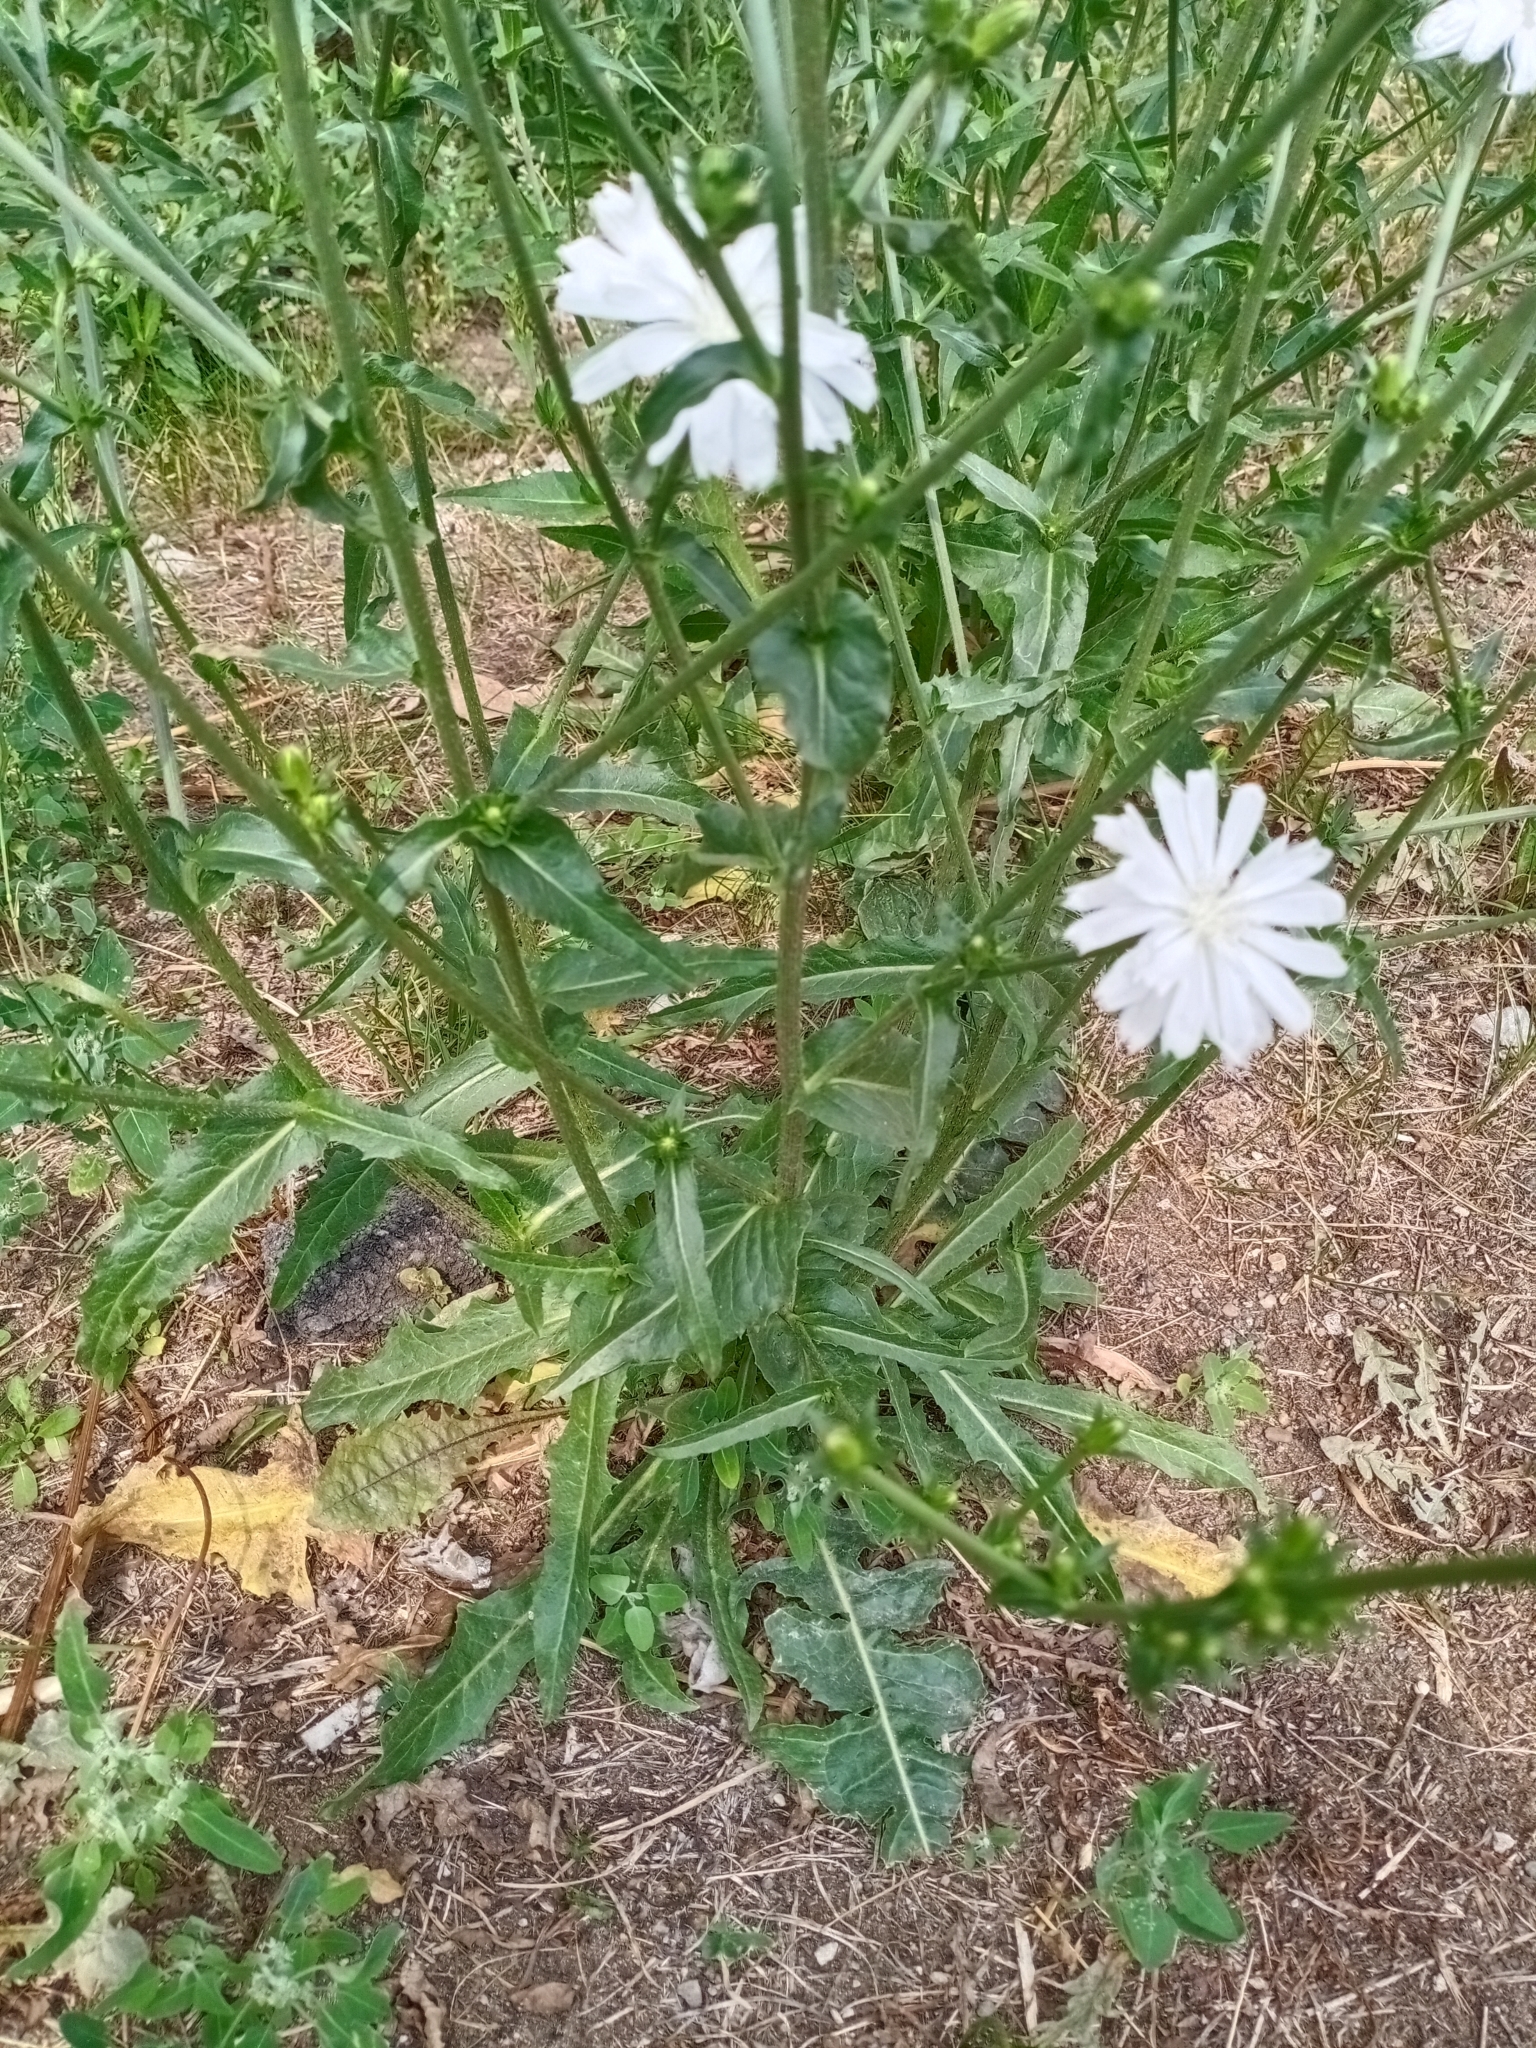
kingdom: Plantae
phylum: Tracheophyta
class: Magnoliopsida
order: Asterales
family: Asteraceae
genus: Cichorium
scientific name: Cichorium intybus
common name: Chicory
